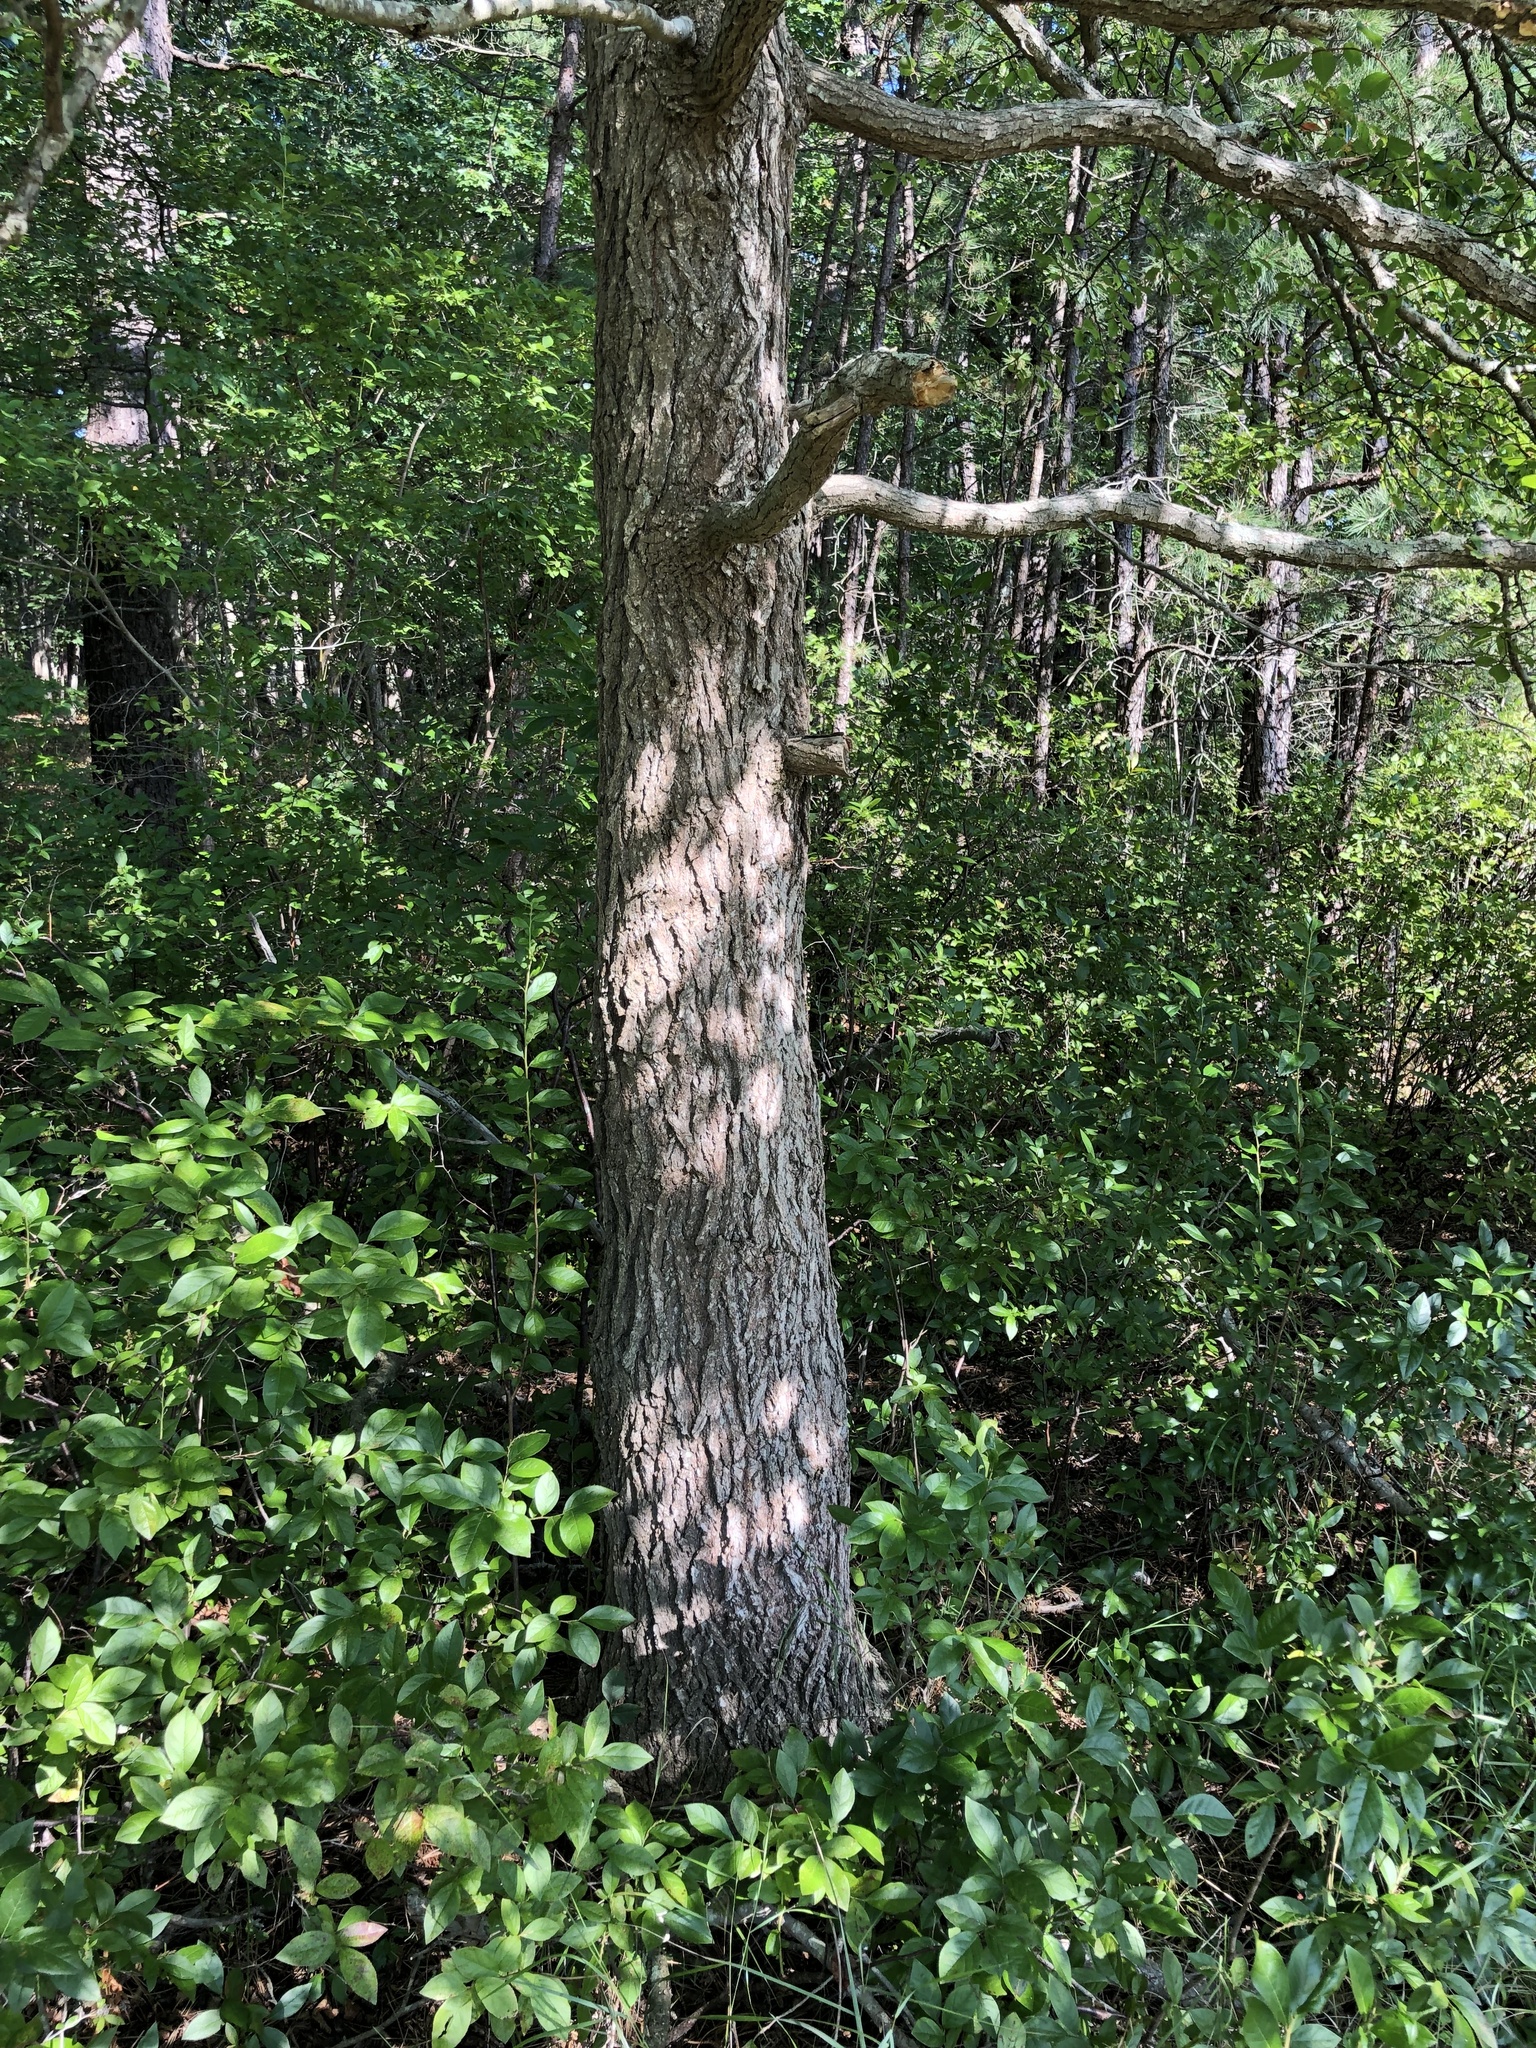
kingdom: Plantae
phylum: Tracheophyta
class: Magnoliopsida
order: Cornales
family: Nyssaceae
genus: Nyssa
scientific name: Nyssa sylvatica
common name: Black tupelo
